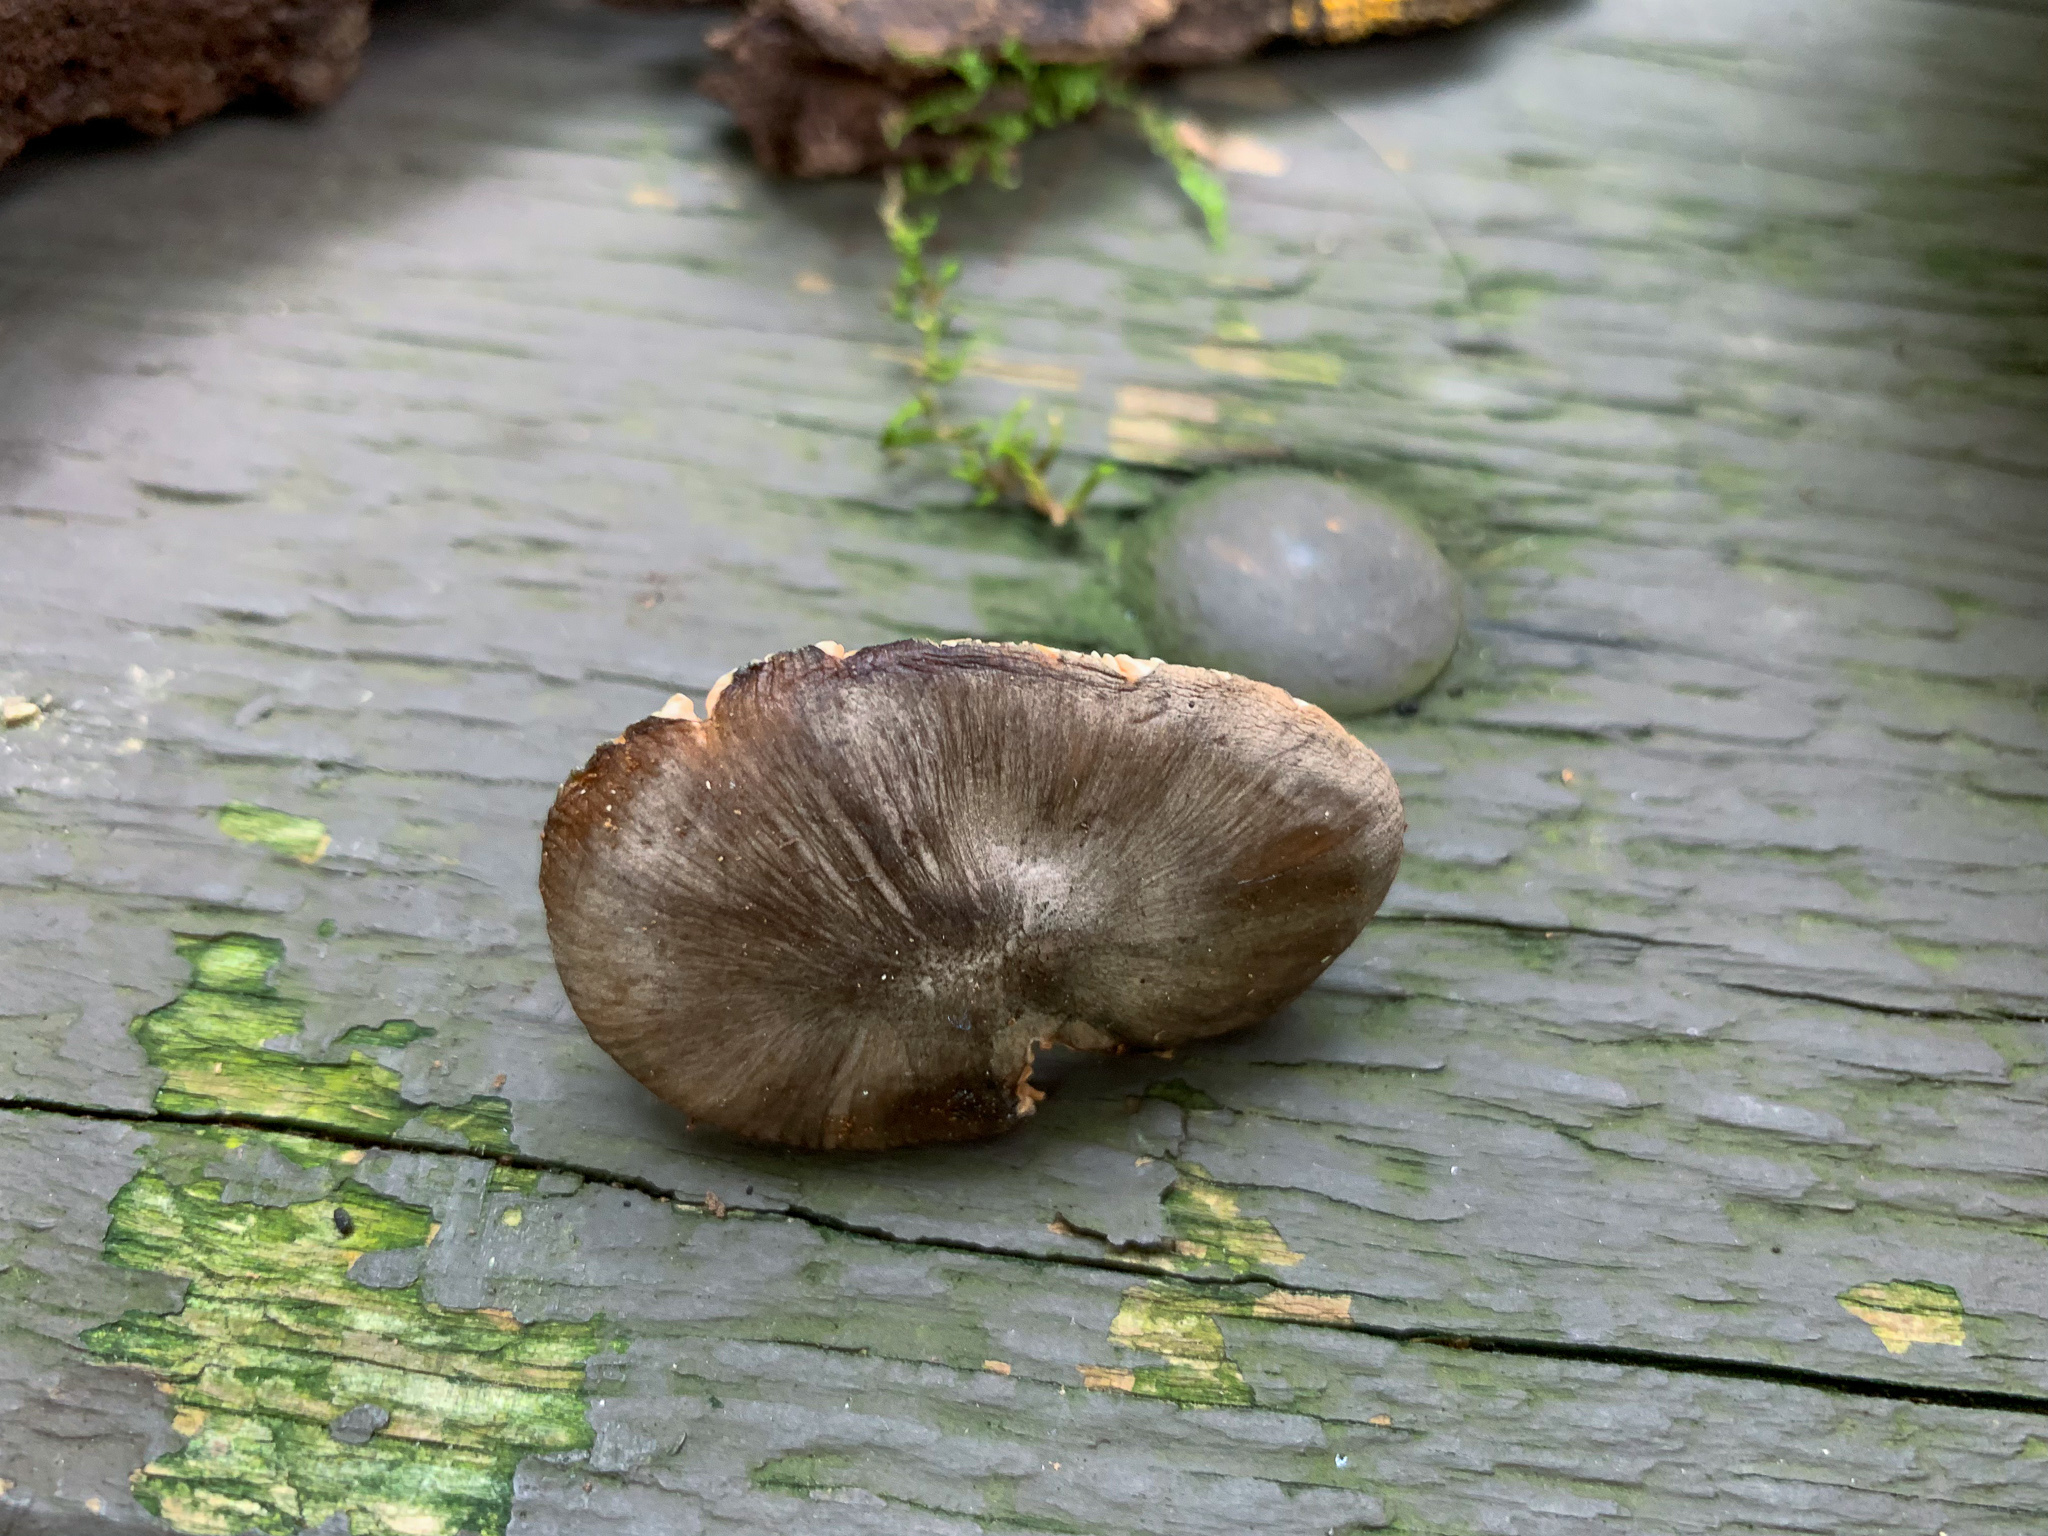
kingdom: Fungi
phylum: Basidiomycota
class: Agaricomycetes
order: Agaricales
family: Pluteaceae
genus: Pluteus
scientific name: Pluteus americanus
